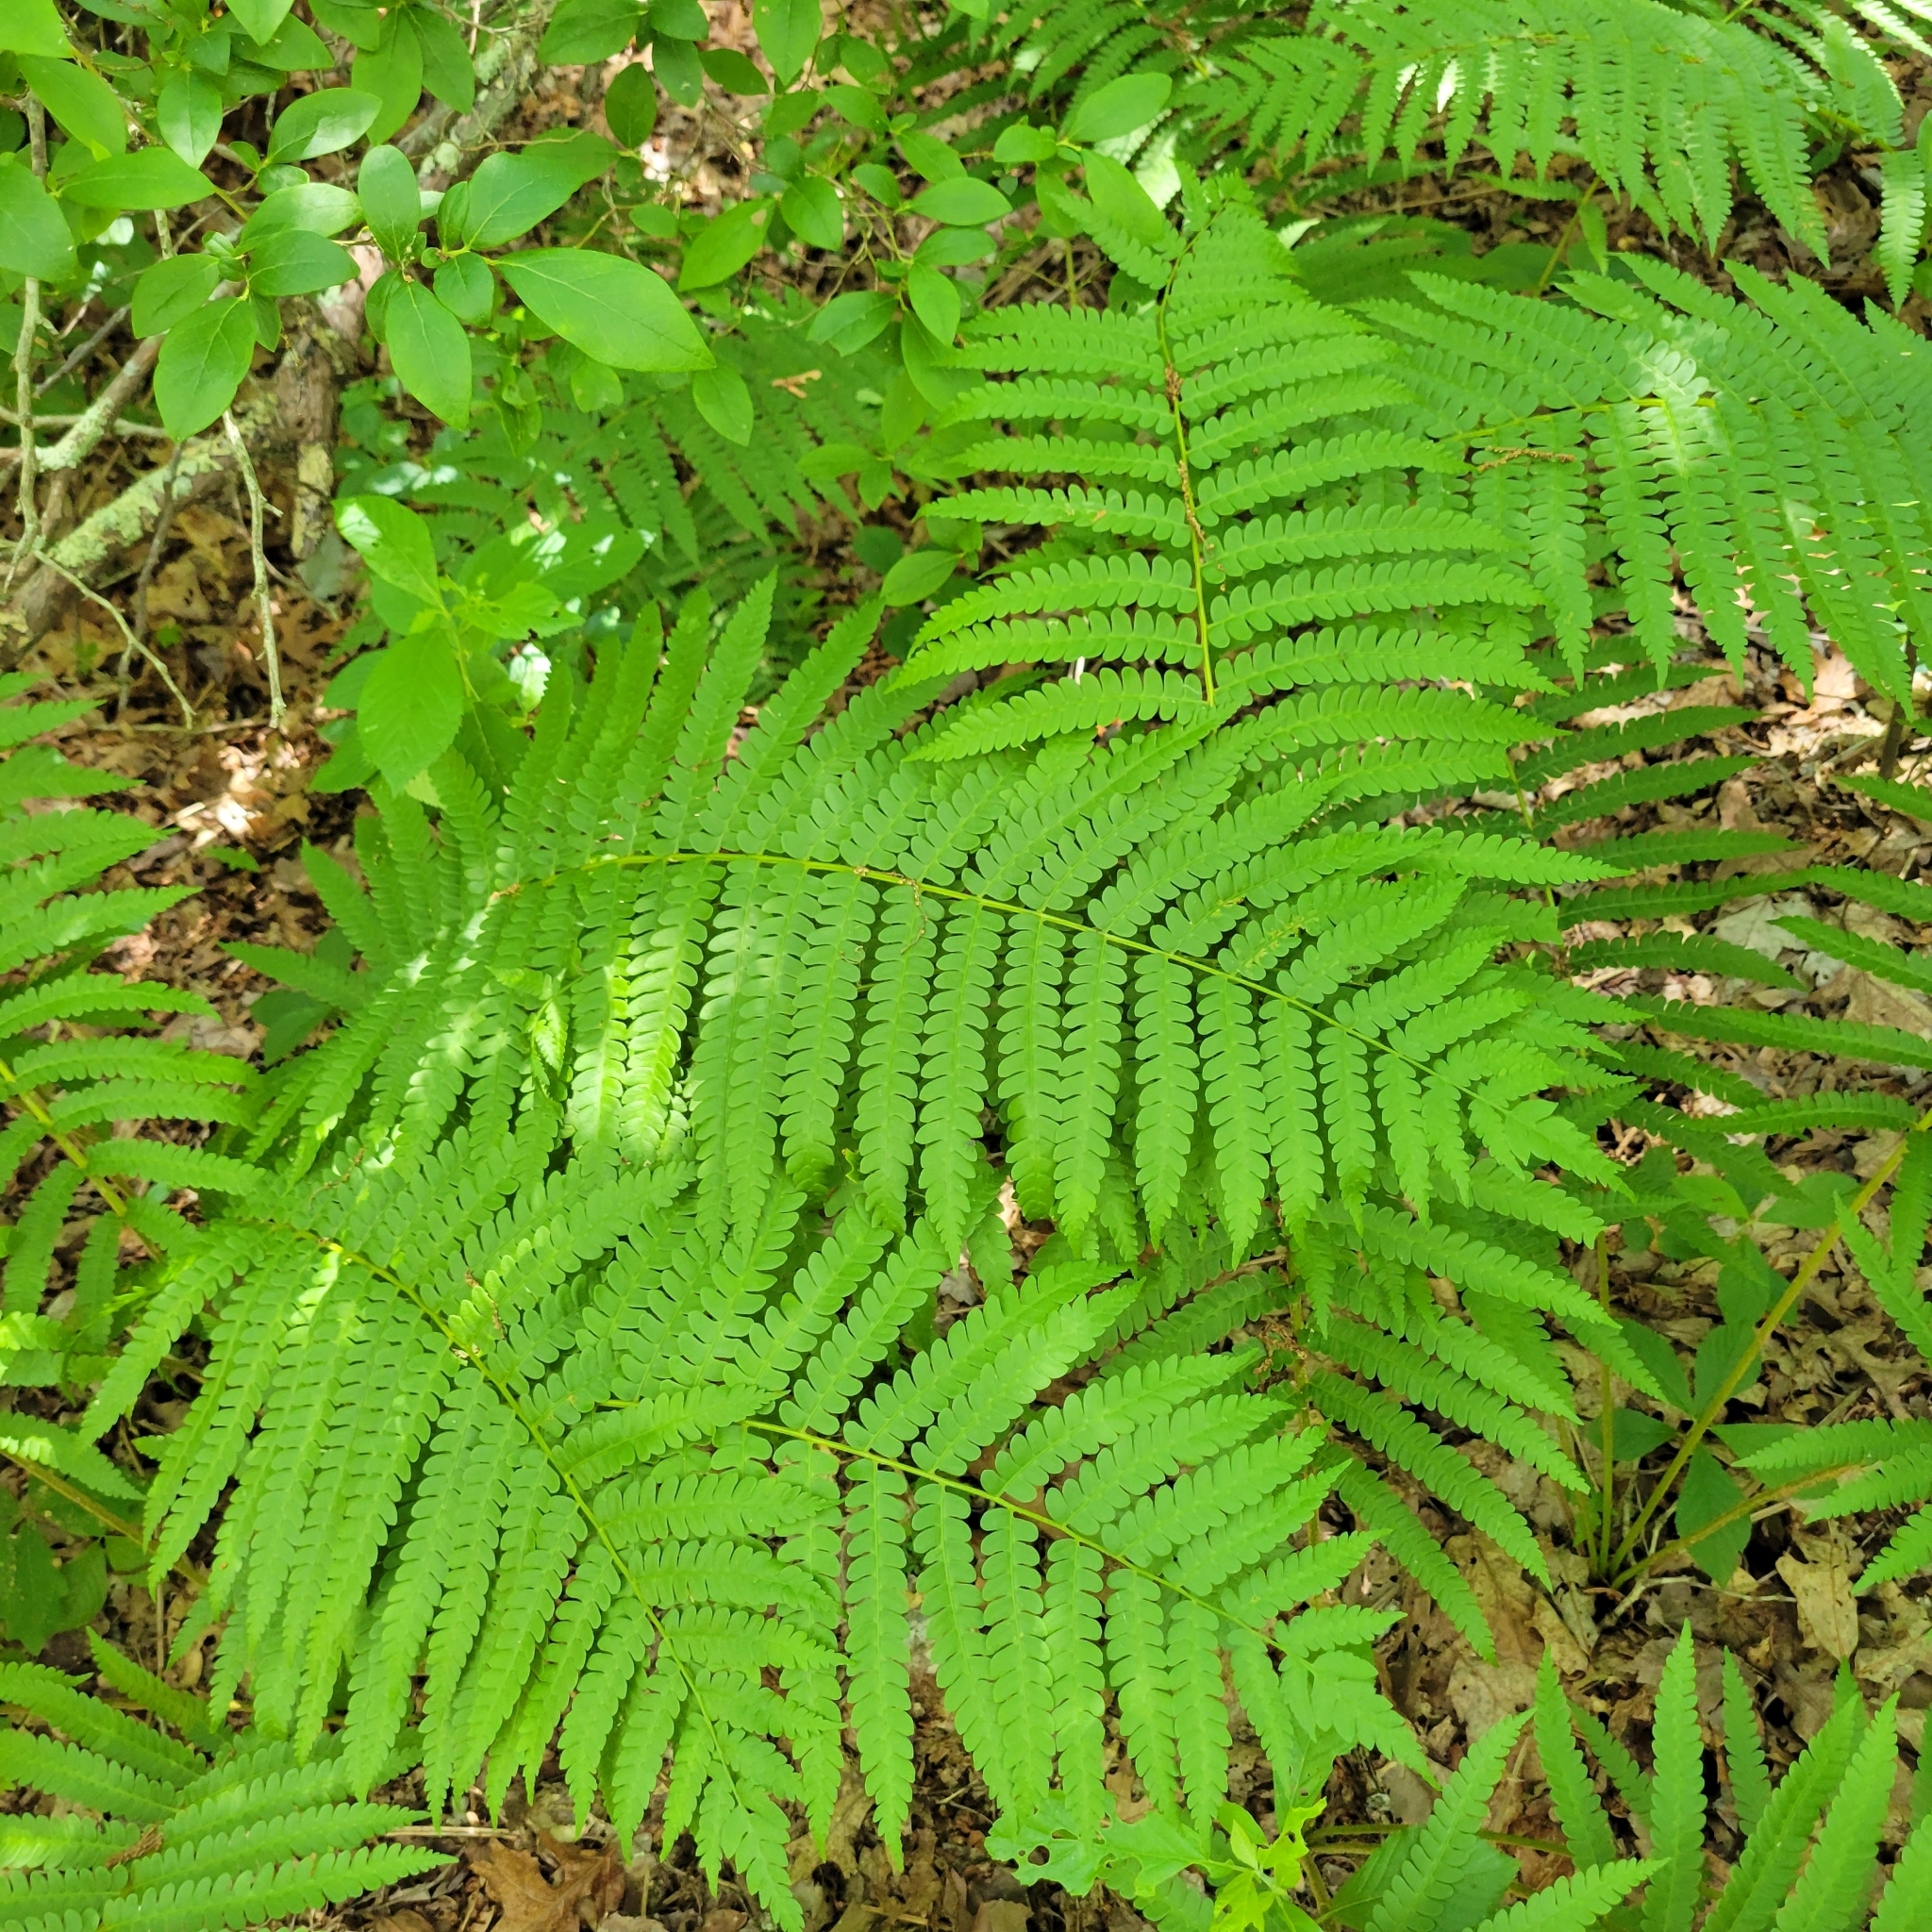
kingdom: Plantae
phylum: Tracheophyta
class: Polypodiopsida
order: Osmundales
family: Osmundaceae
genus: Osmundastrum
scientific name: Osmundastrum cinnamomeum
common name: Cinnamon fern
